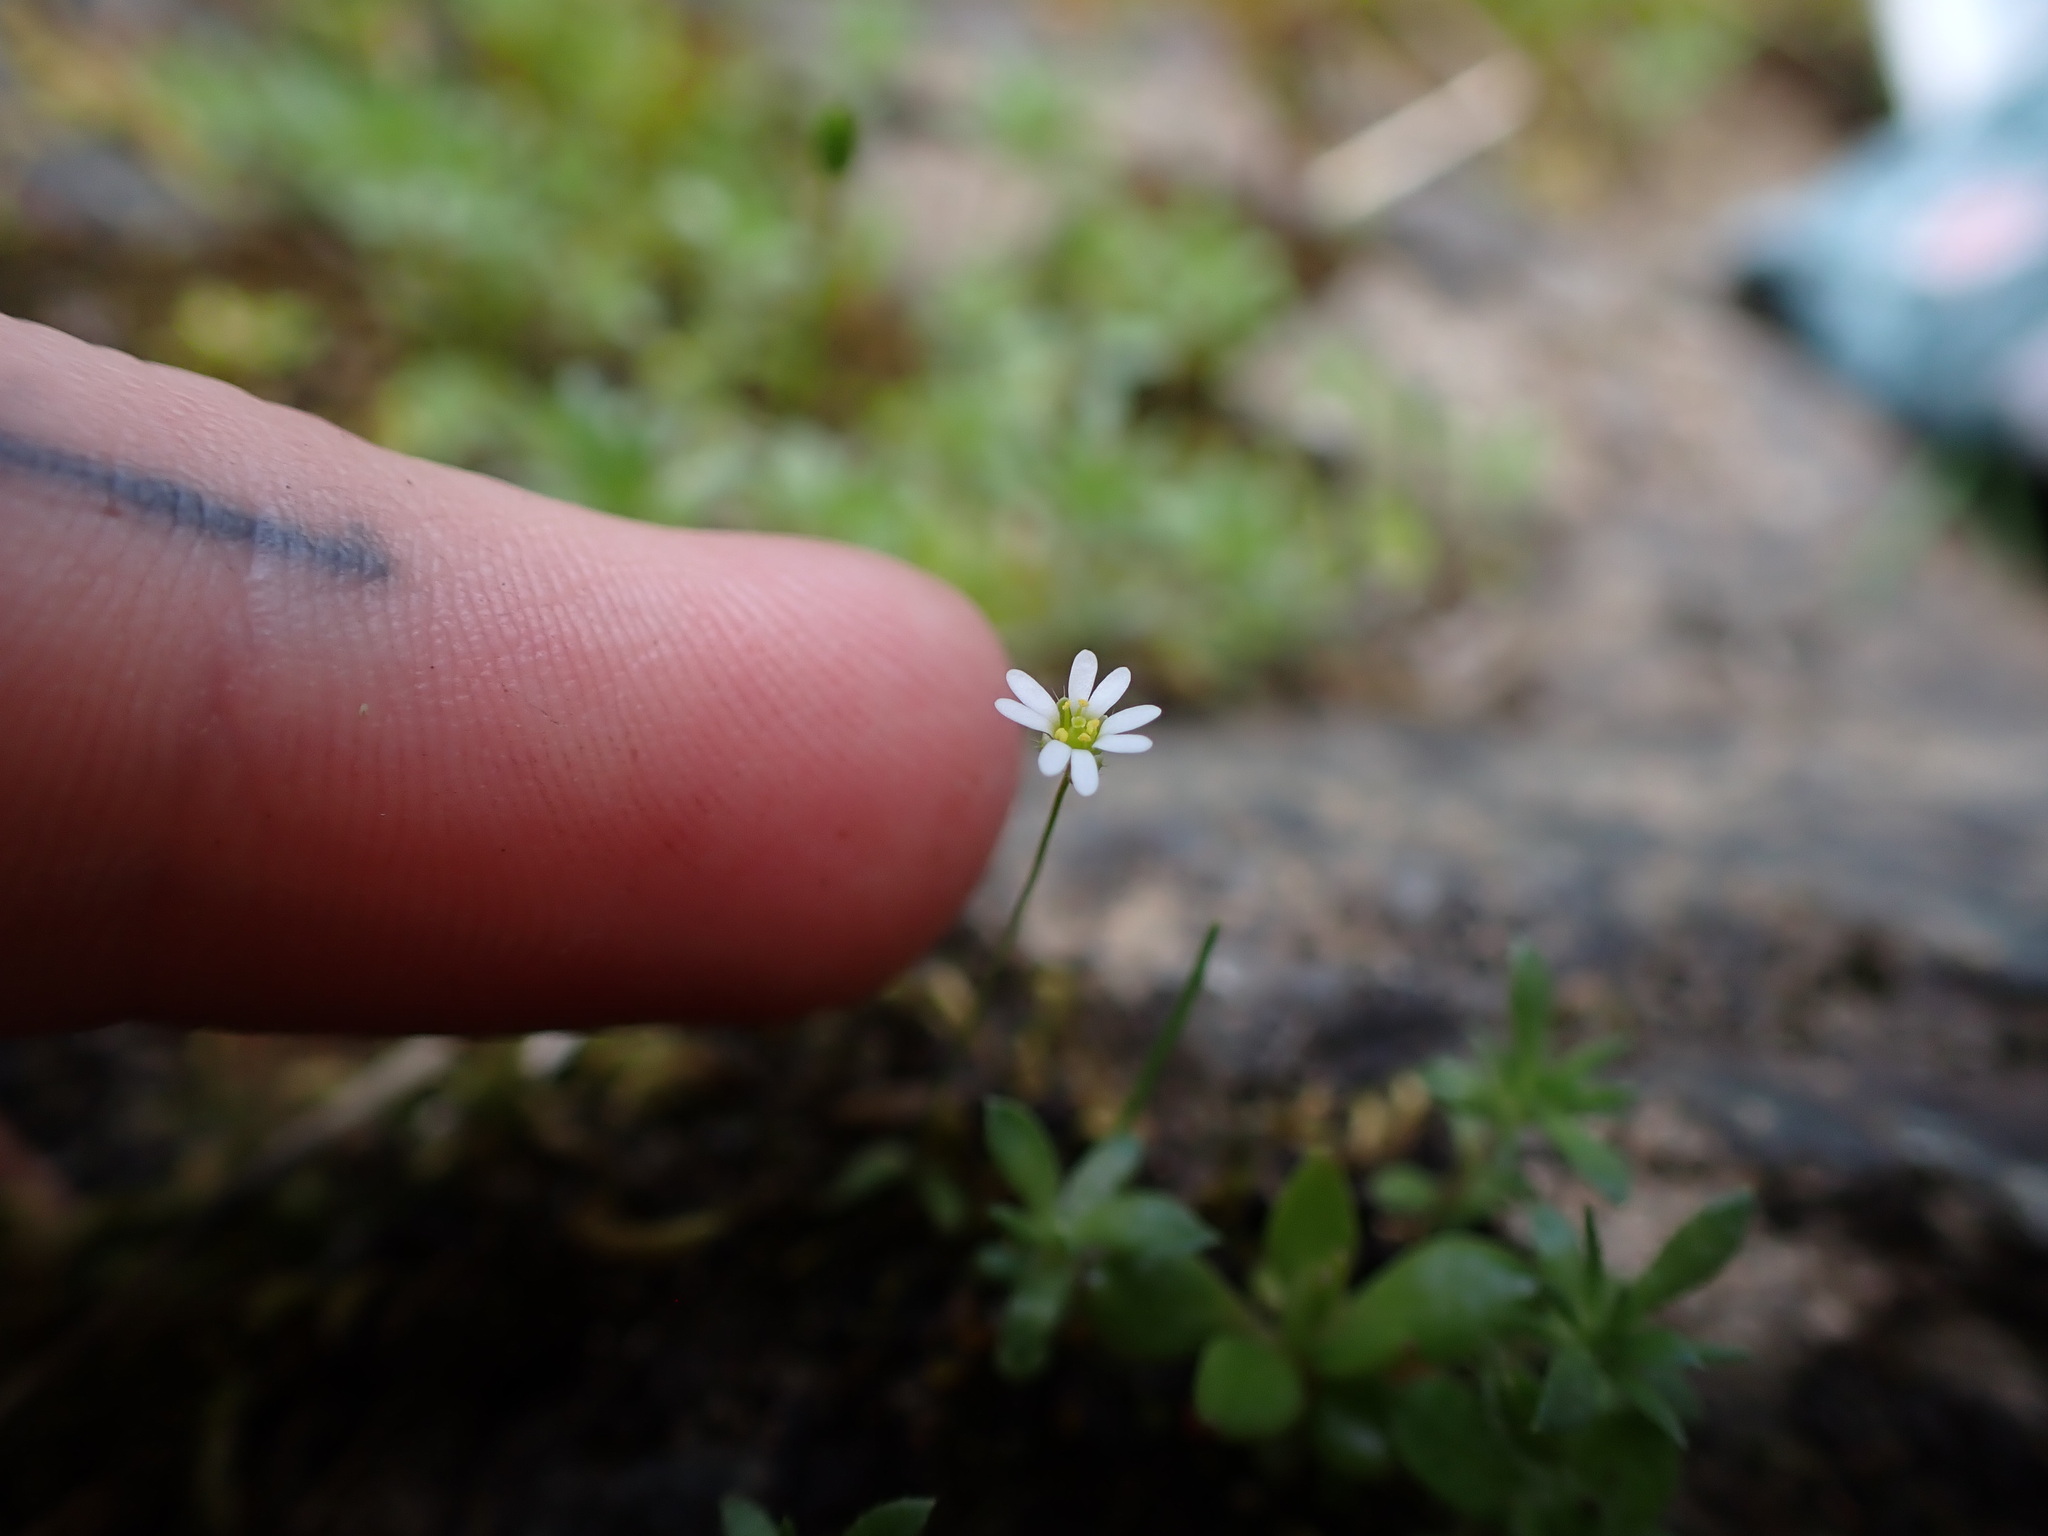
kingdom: Plantae
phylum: Tracheophyta
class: Magnoliopsida
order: Brassicales
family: Brassicaceae
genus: Draba
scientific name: Draba verna
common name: Spring draba
